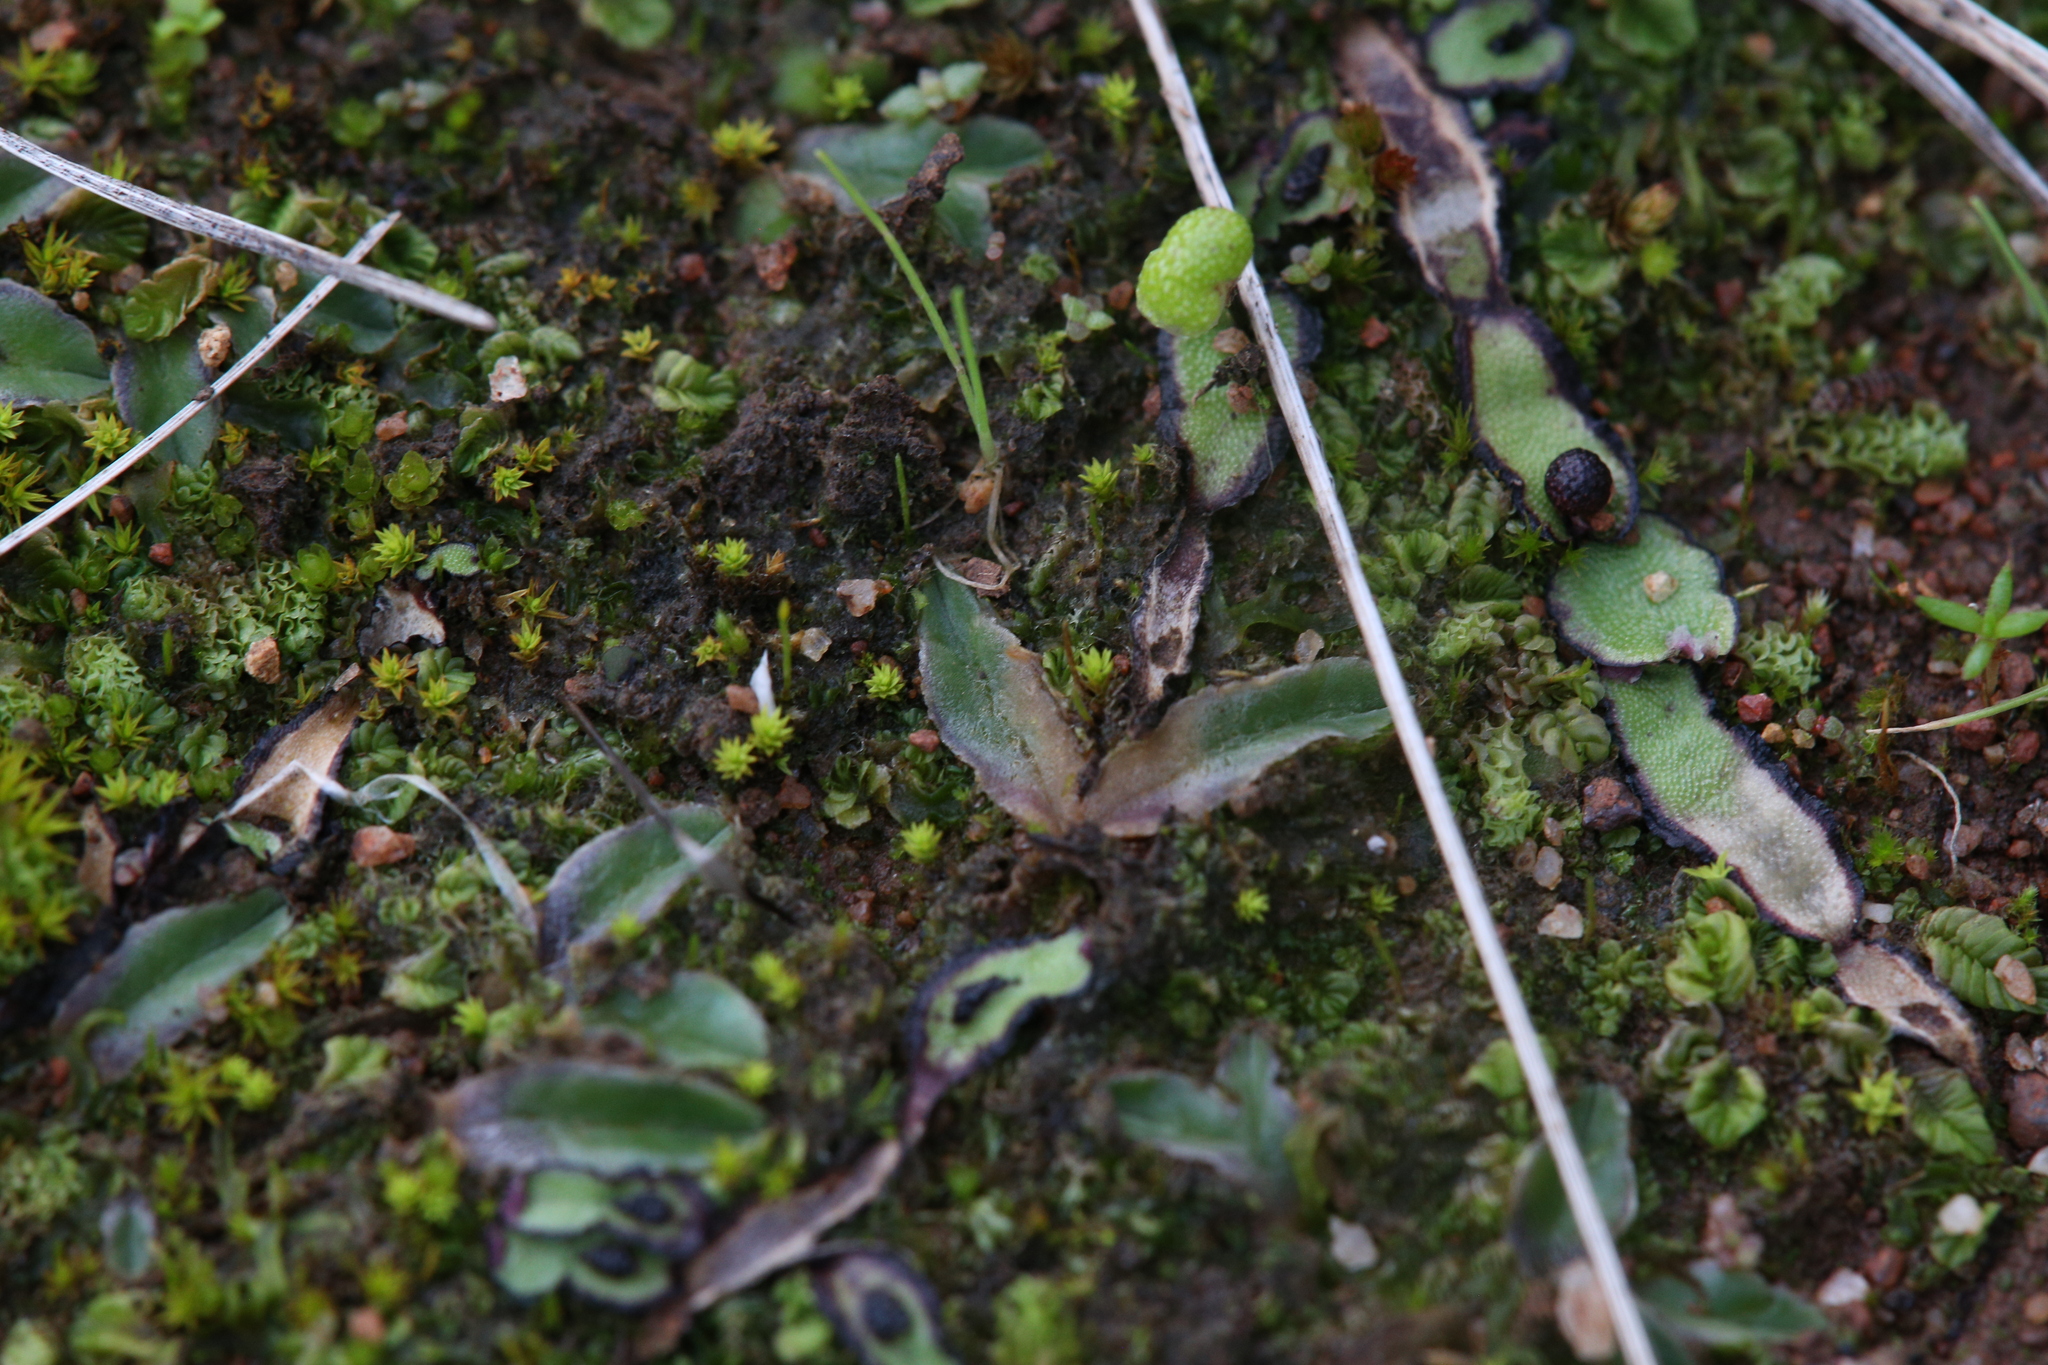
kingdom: Plantae
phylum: Marchantiophyta
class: Marchantiopsida
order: Marchantiales
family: Aytoniaceae
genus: Asterella
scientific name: Asterella drummondii
